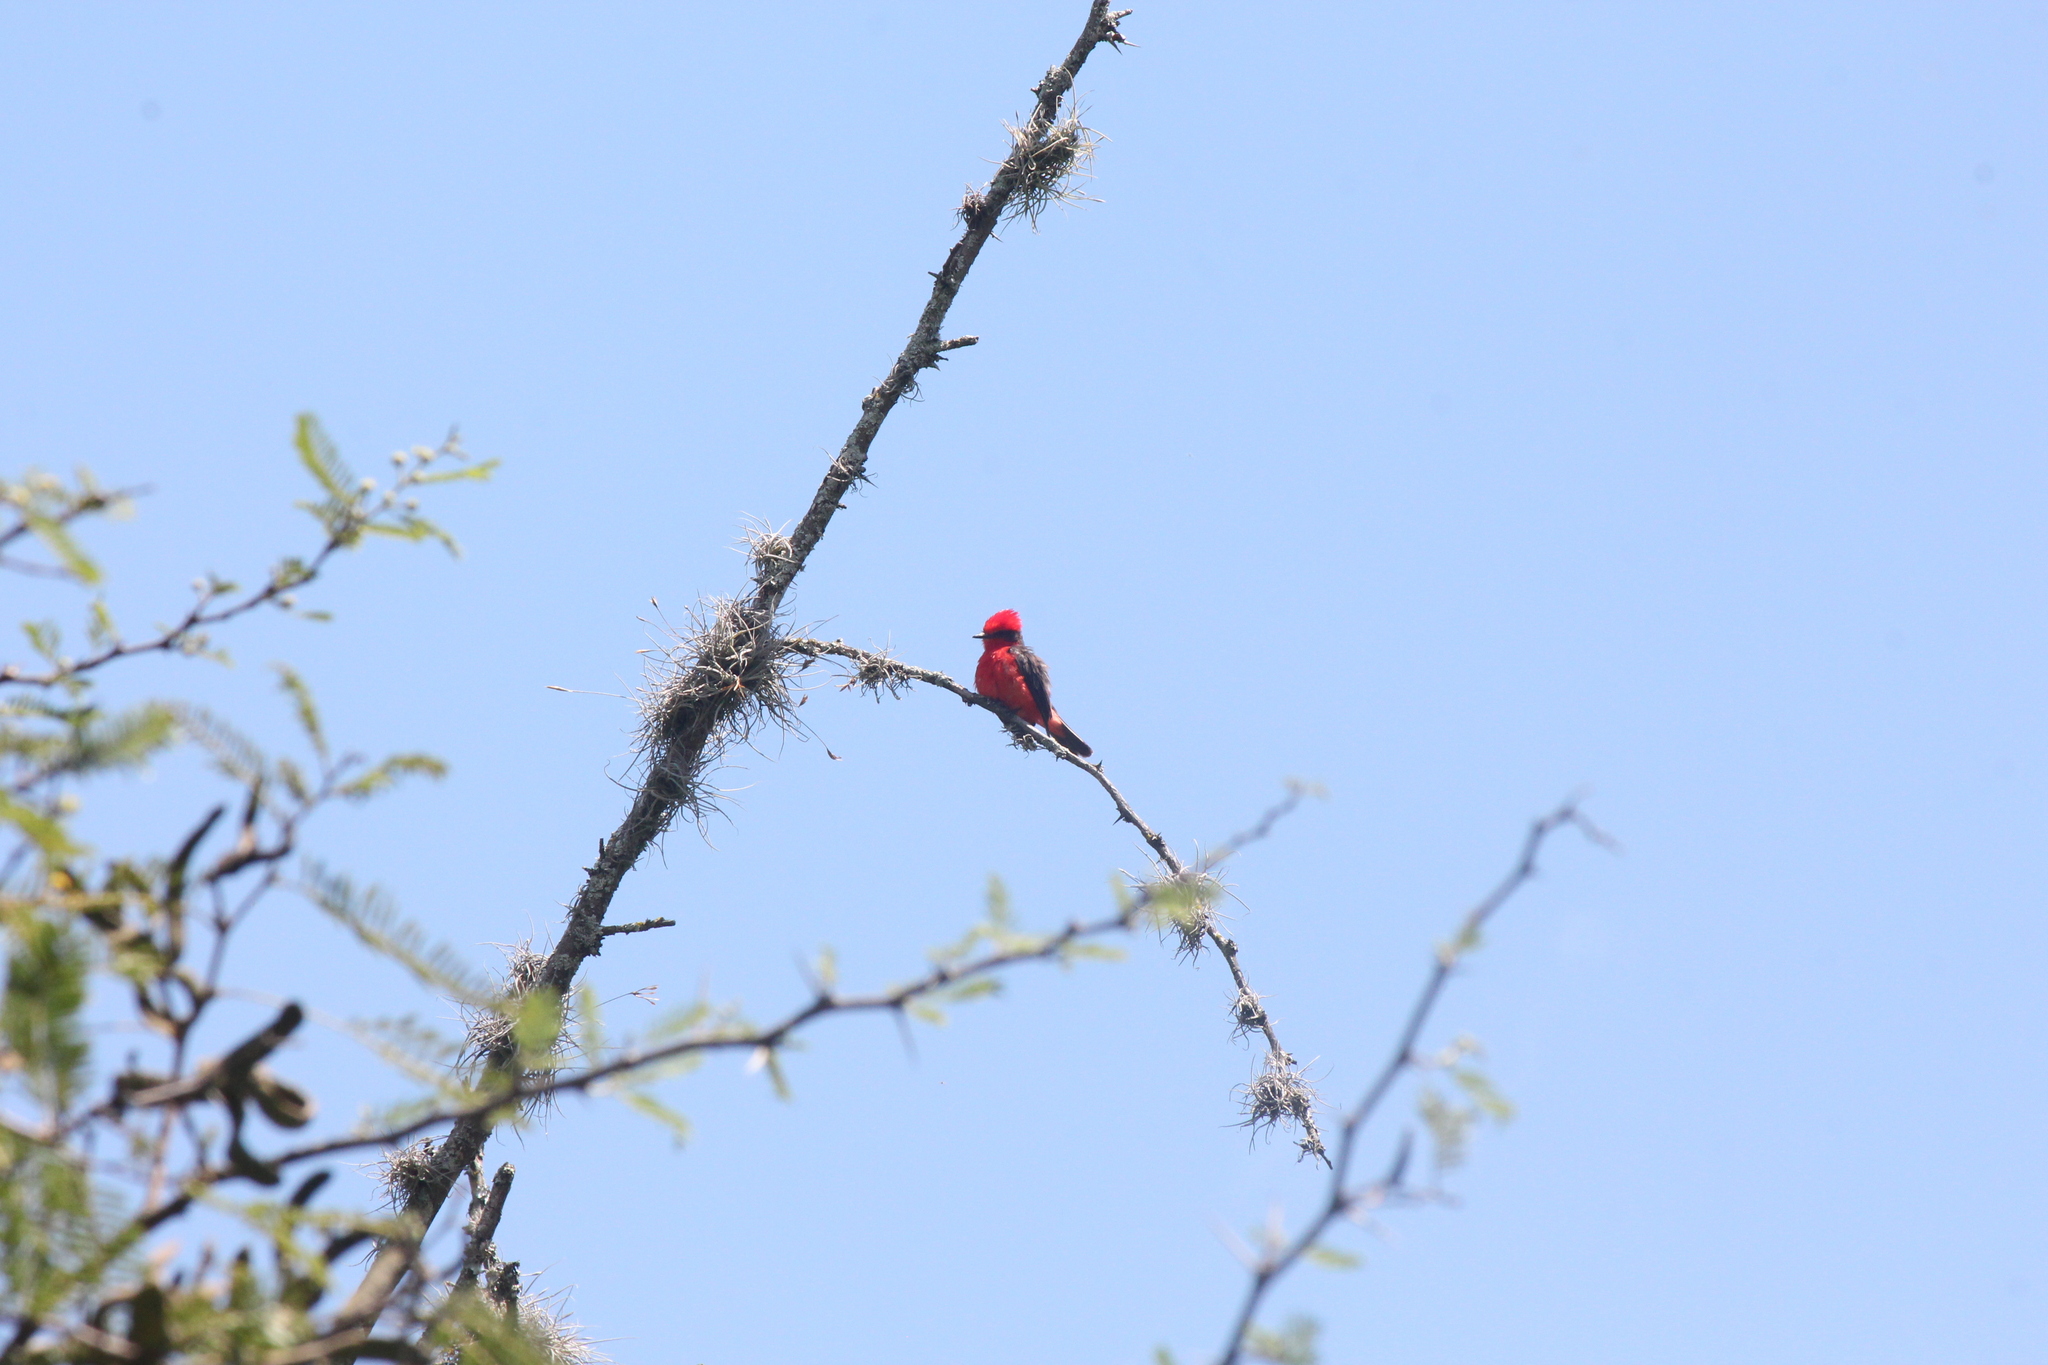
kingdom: Animalia
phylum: Chordata
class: Aves
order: Passeriformes
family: Tyrannidae
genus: Pyrocephalus
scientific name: Pyrocephalus rubinus
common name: Vermilion flycatcher
